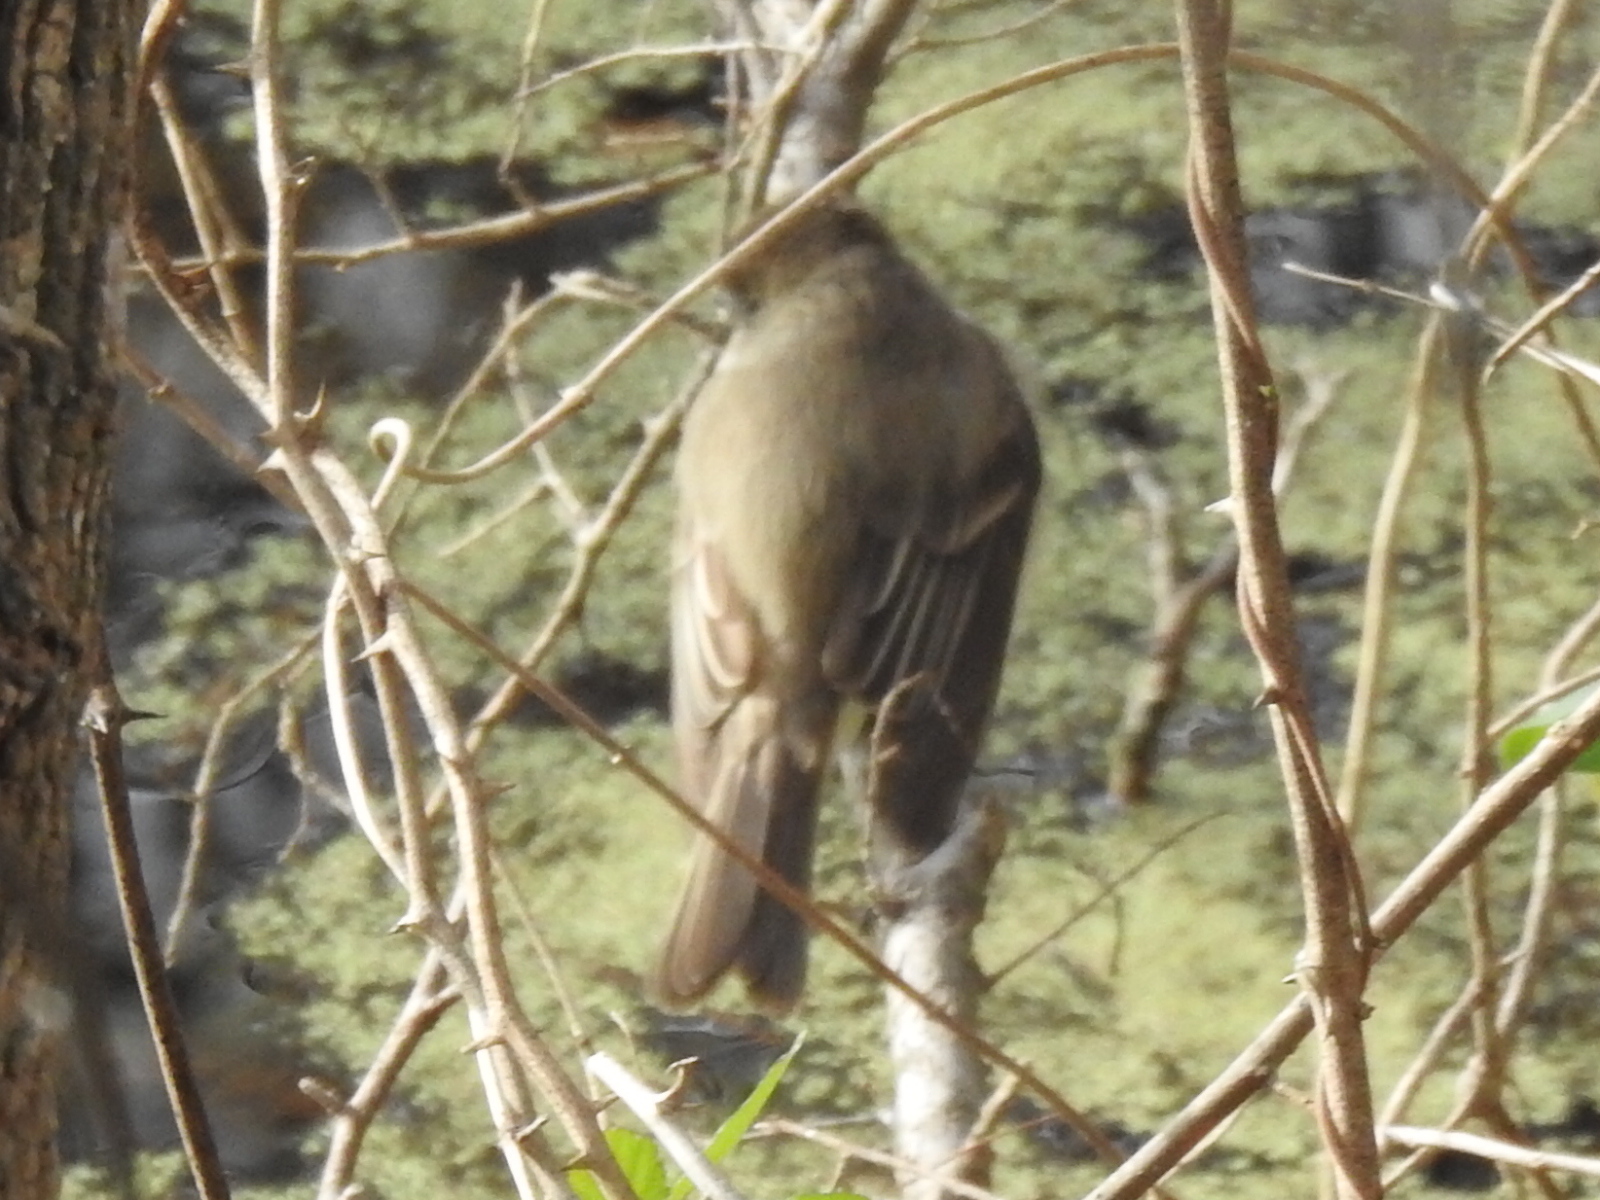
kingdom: Animalia
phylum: Chordata
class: Aves
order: Passeriformes
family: Tyrannidae
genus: Sayornis
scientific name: Sayornis phoebe
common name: Eastern phoebe
